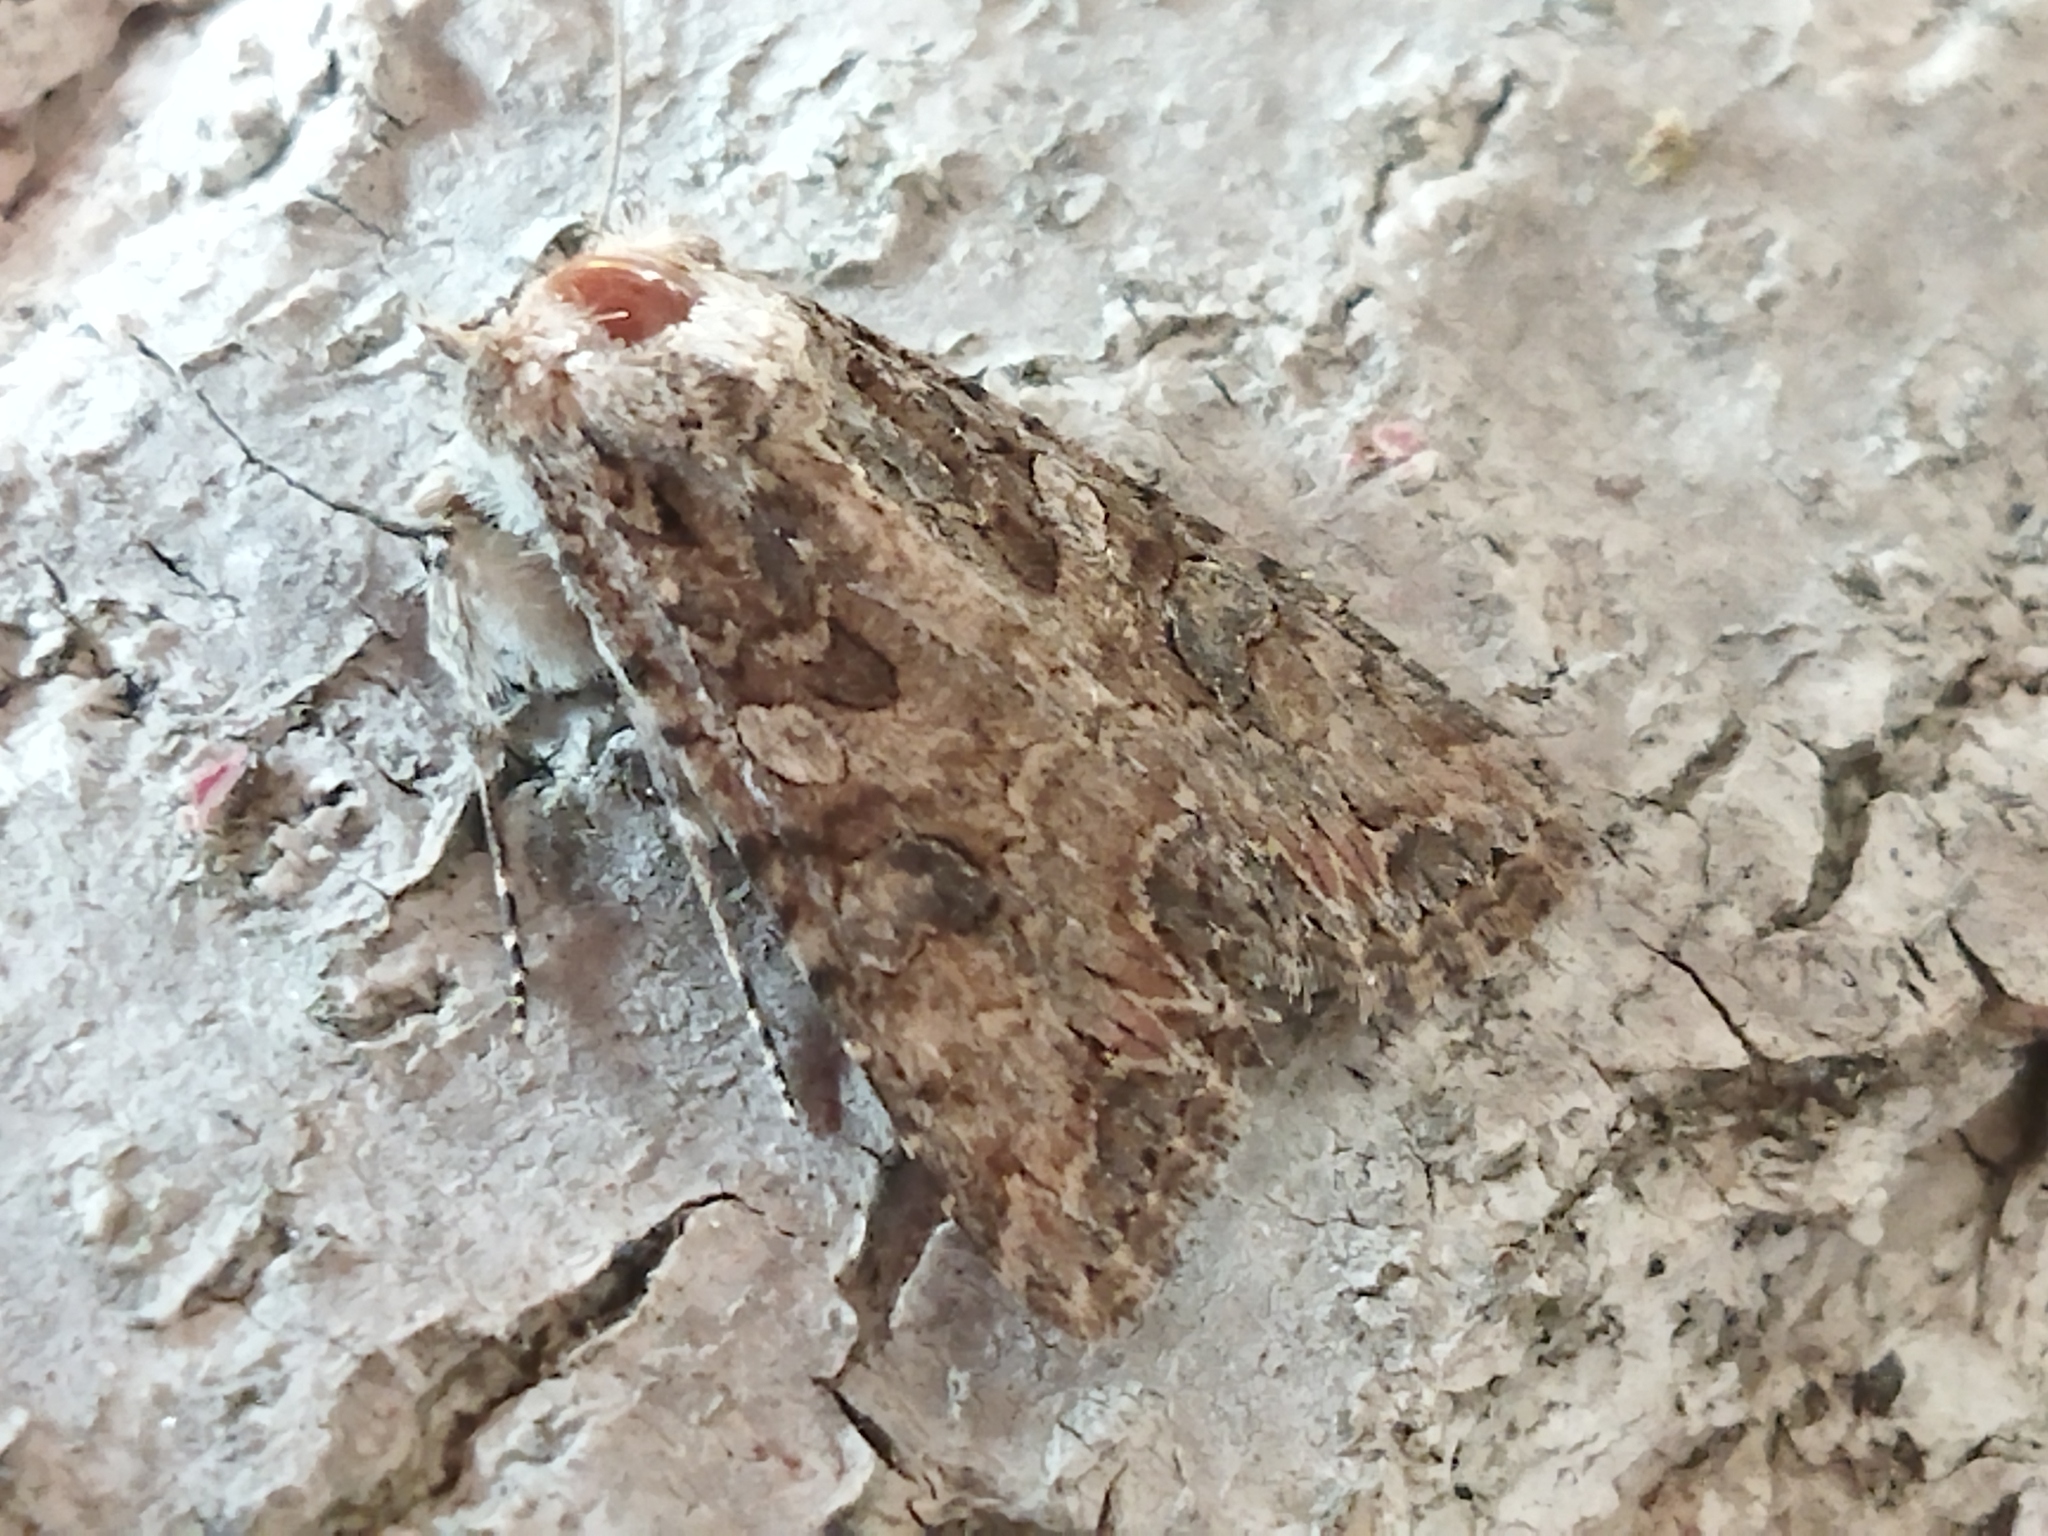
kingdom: Animalia
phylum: Arthropoda
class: Insecta
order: Lepidoptera
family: Noctuidae
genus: Anarta
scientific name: Anarta trifolii
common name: Clover cutworm moth
